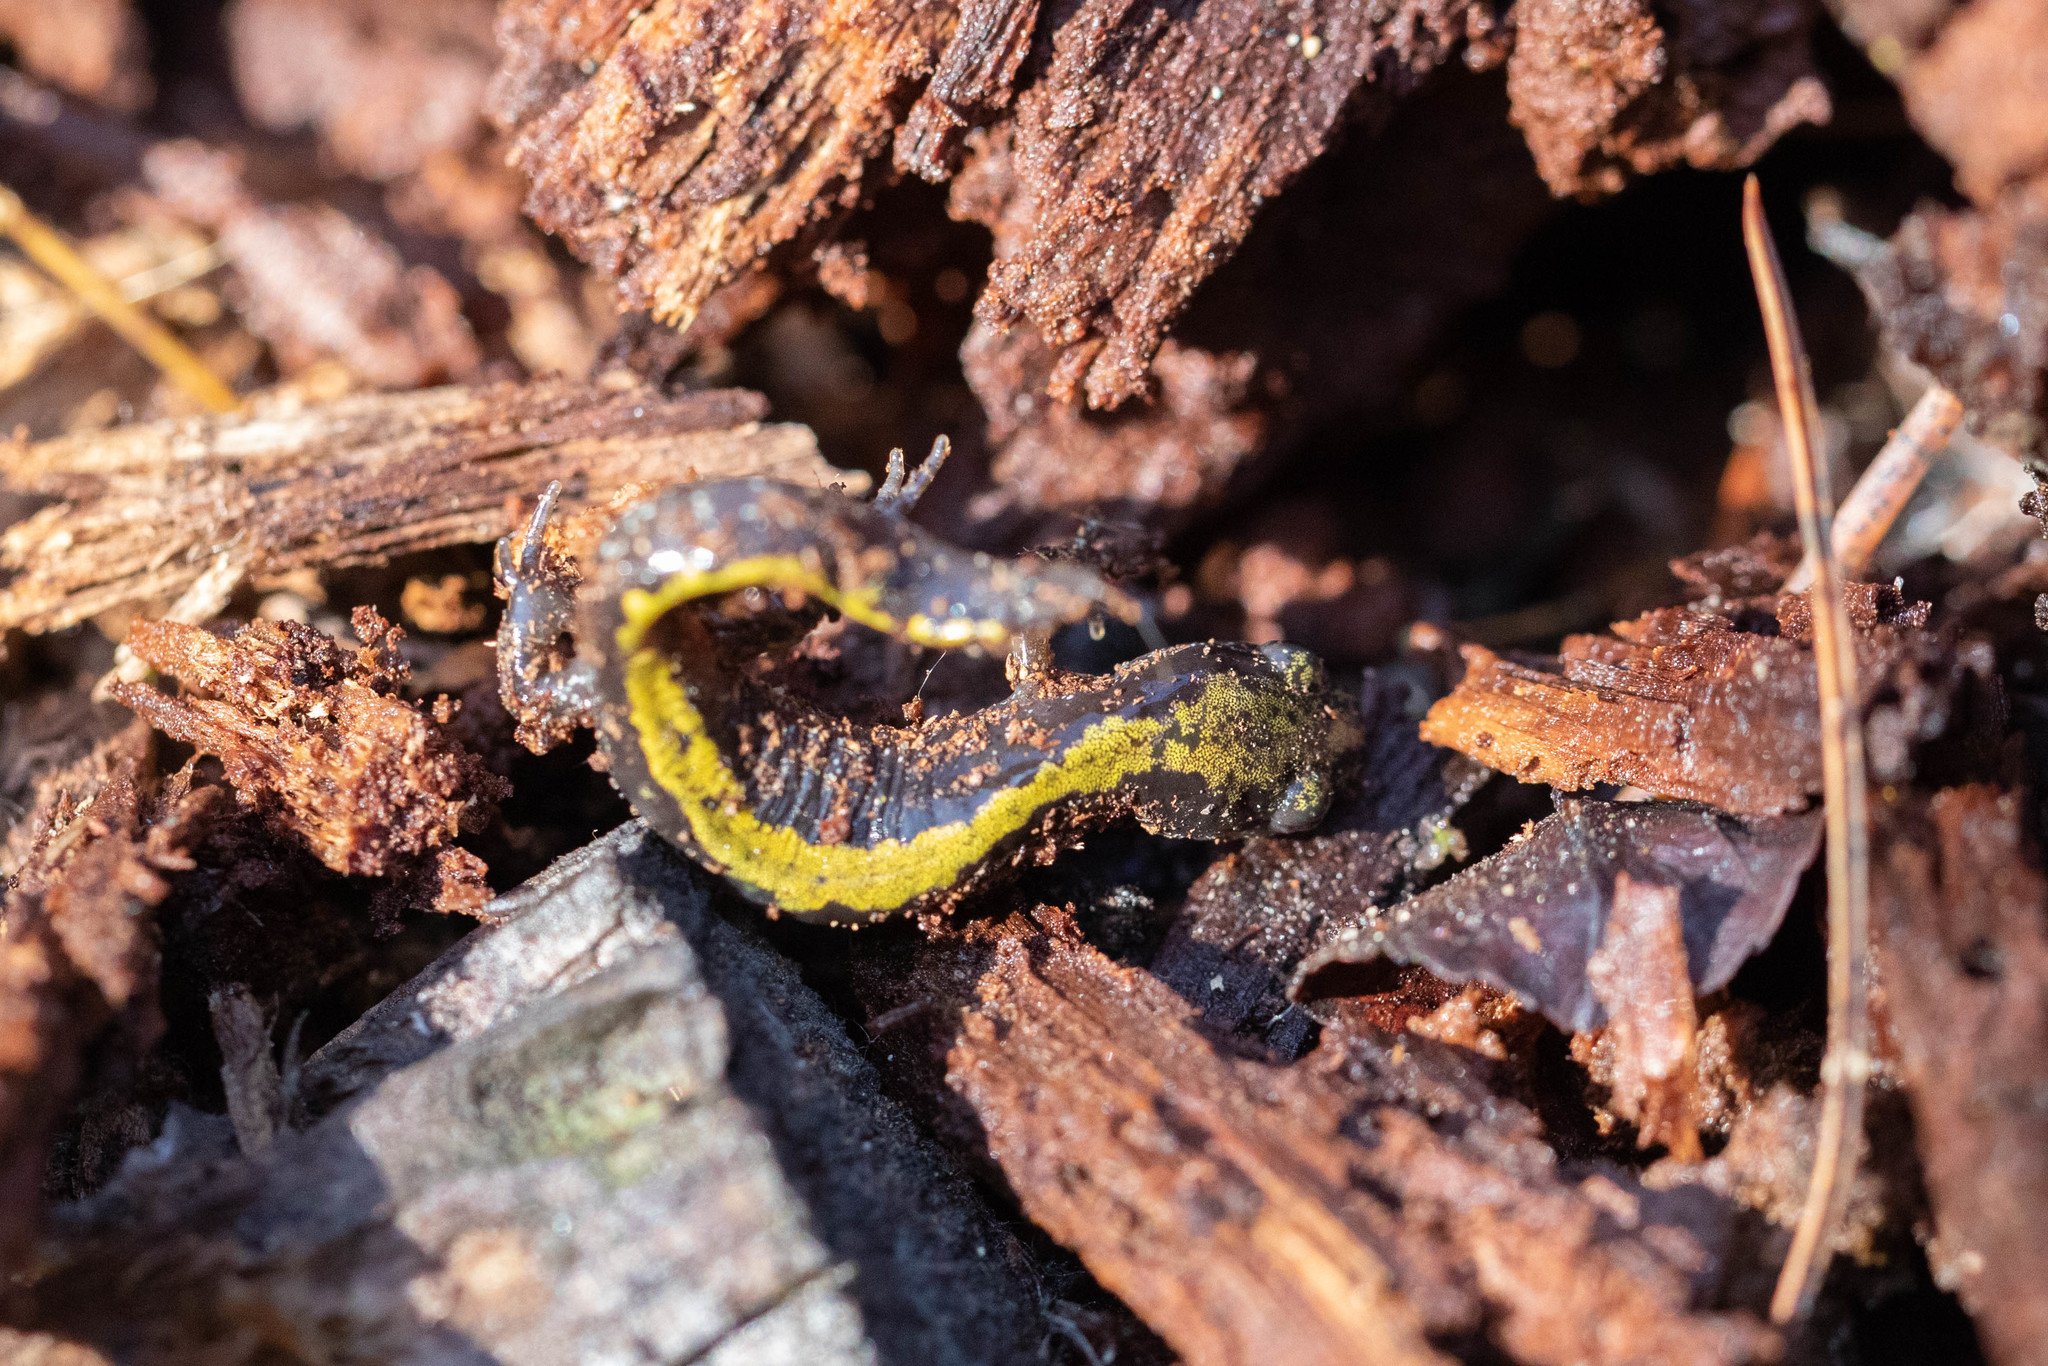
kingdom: Animalia
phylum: Chordata
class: Amphibia
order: Caudata
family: Ambystomatidae
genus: Ambystoma
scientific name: Ambystoma macrodactylum
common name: Long-toed salamander
